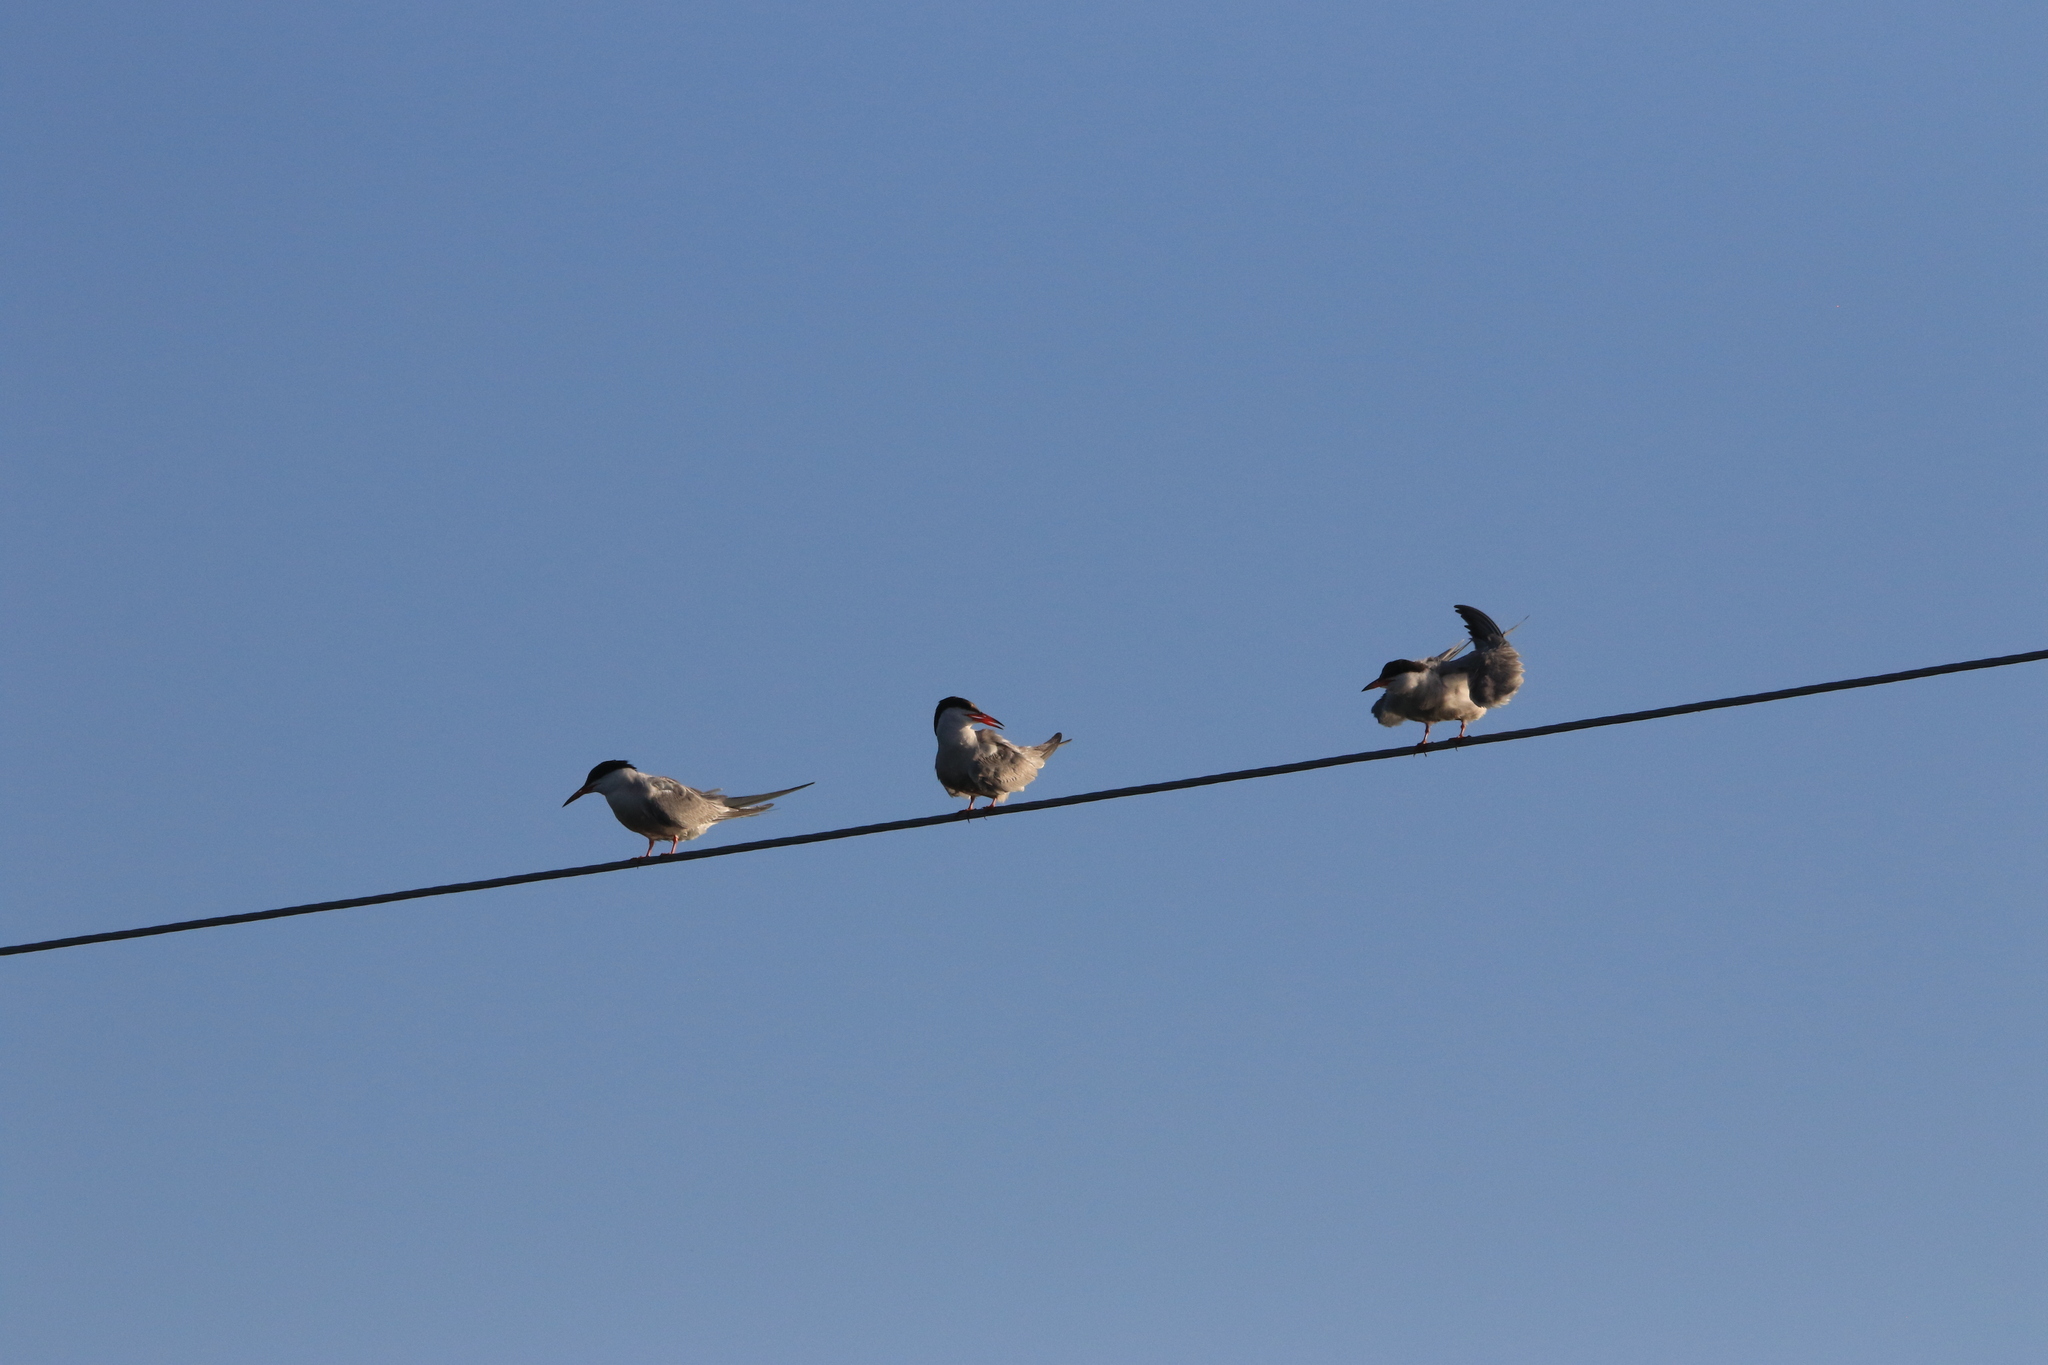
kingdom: Animalia
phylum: Chordata
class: Aves
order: Charadriiformes
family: Laridae
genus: Sterna
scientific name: Sterna hirundo
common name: Common tern
